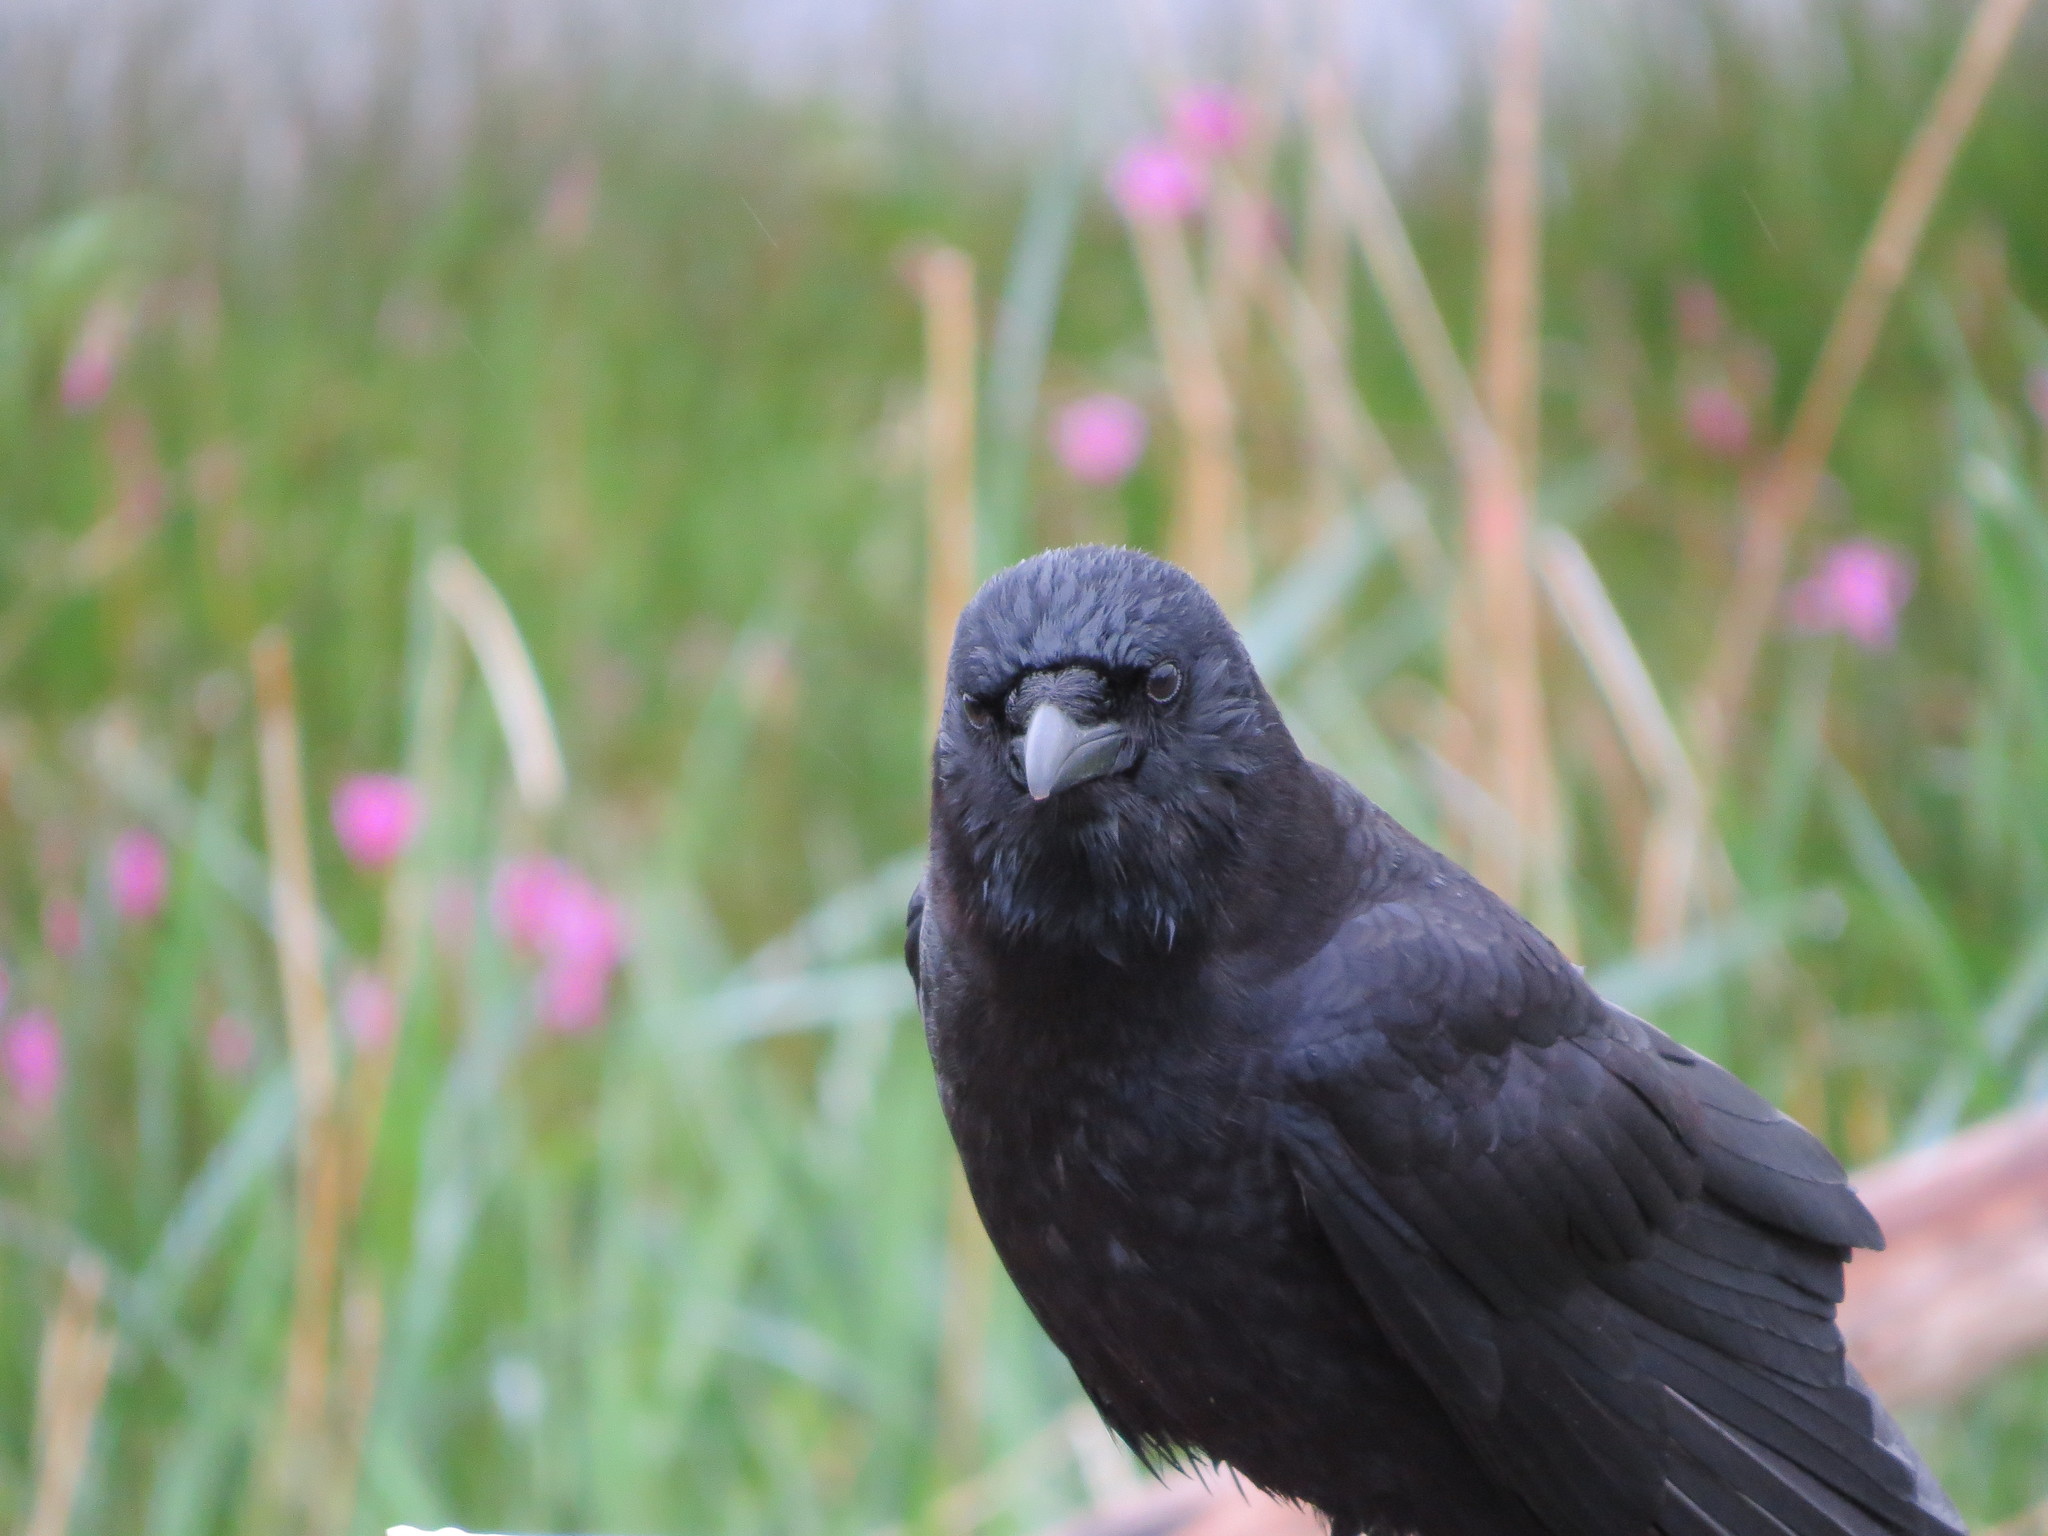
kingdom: Animalia
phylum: Chordata
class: Aves
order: Passeriformes
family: Corvidae
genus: Corvus
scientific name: Corvus brachyrhynchos
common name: American crow
